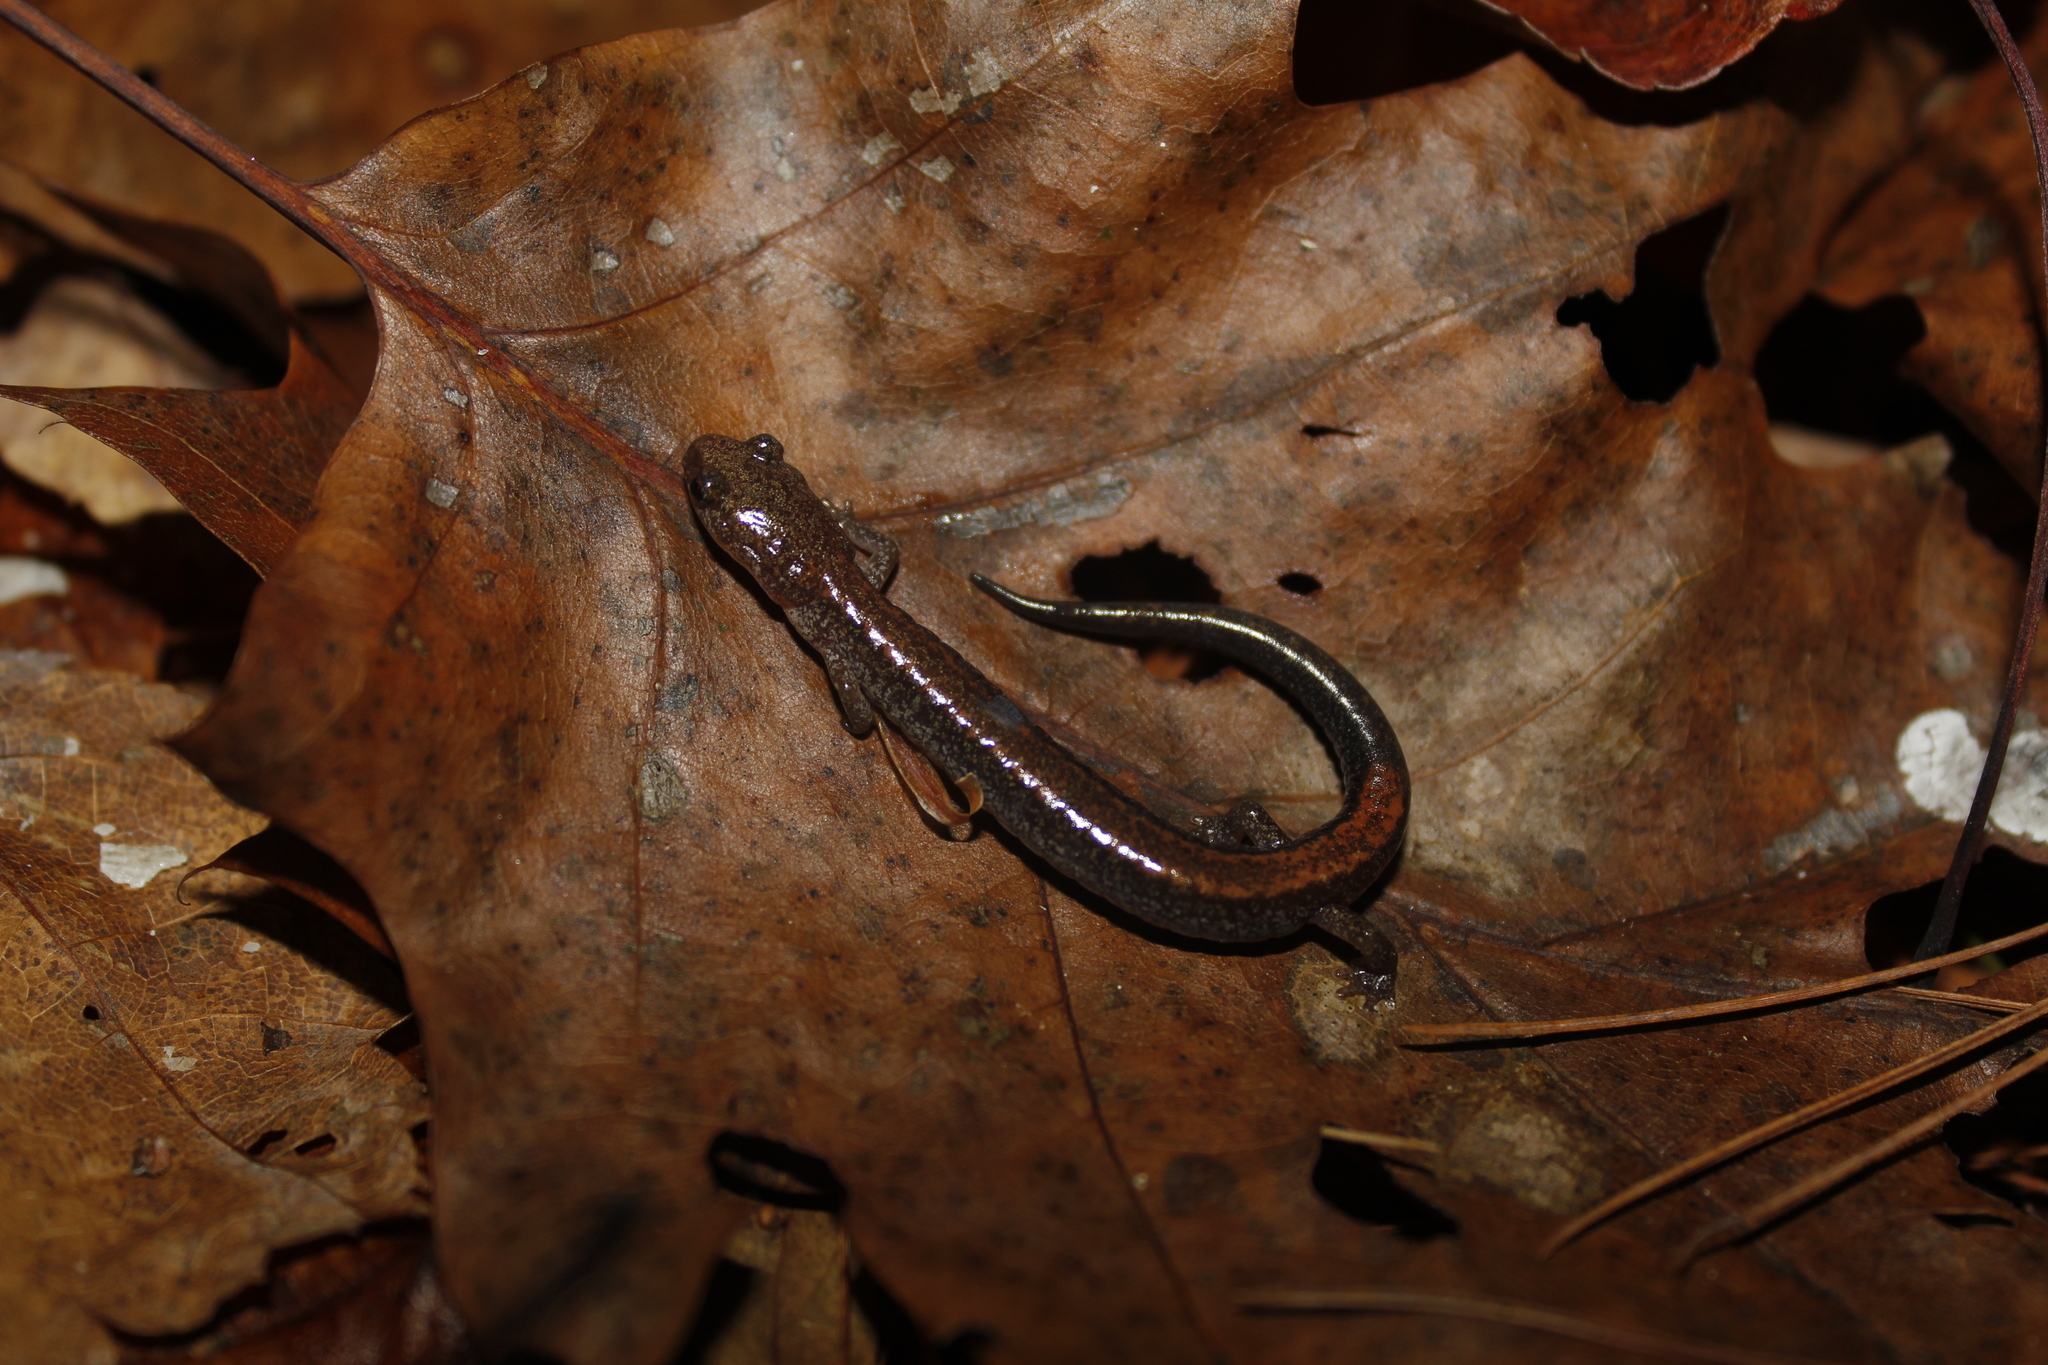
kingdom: Animalia
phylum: Chordata
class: Amphibia
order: Caudata
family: Plethodontidae
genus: Plethodon
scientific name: Plethodon cinereus
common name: Redback salamander
